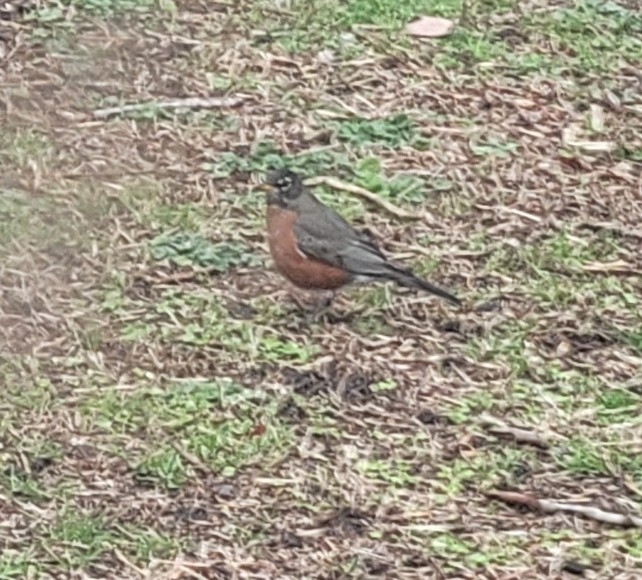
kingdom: Animalia
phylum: Chordata
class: Aves
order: Passeriformes
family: Turdidae
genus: Turdus
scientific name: Turdus migratorius
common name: American robin
